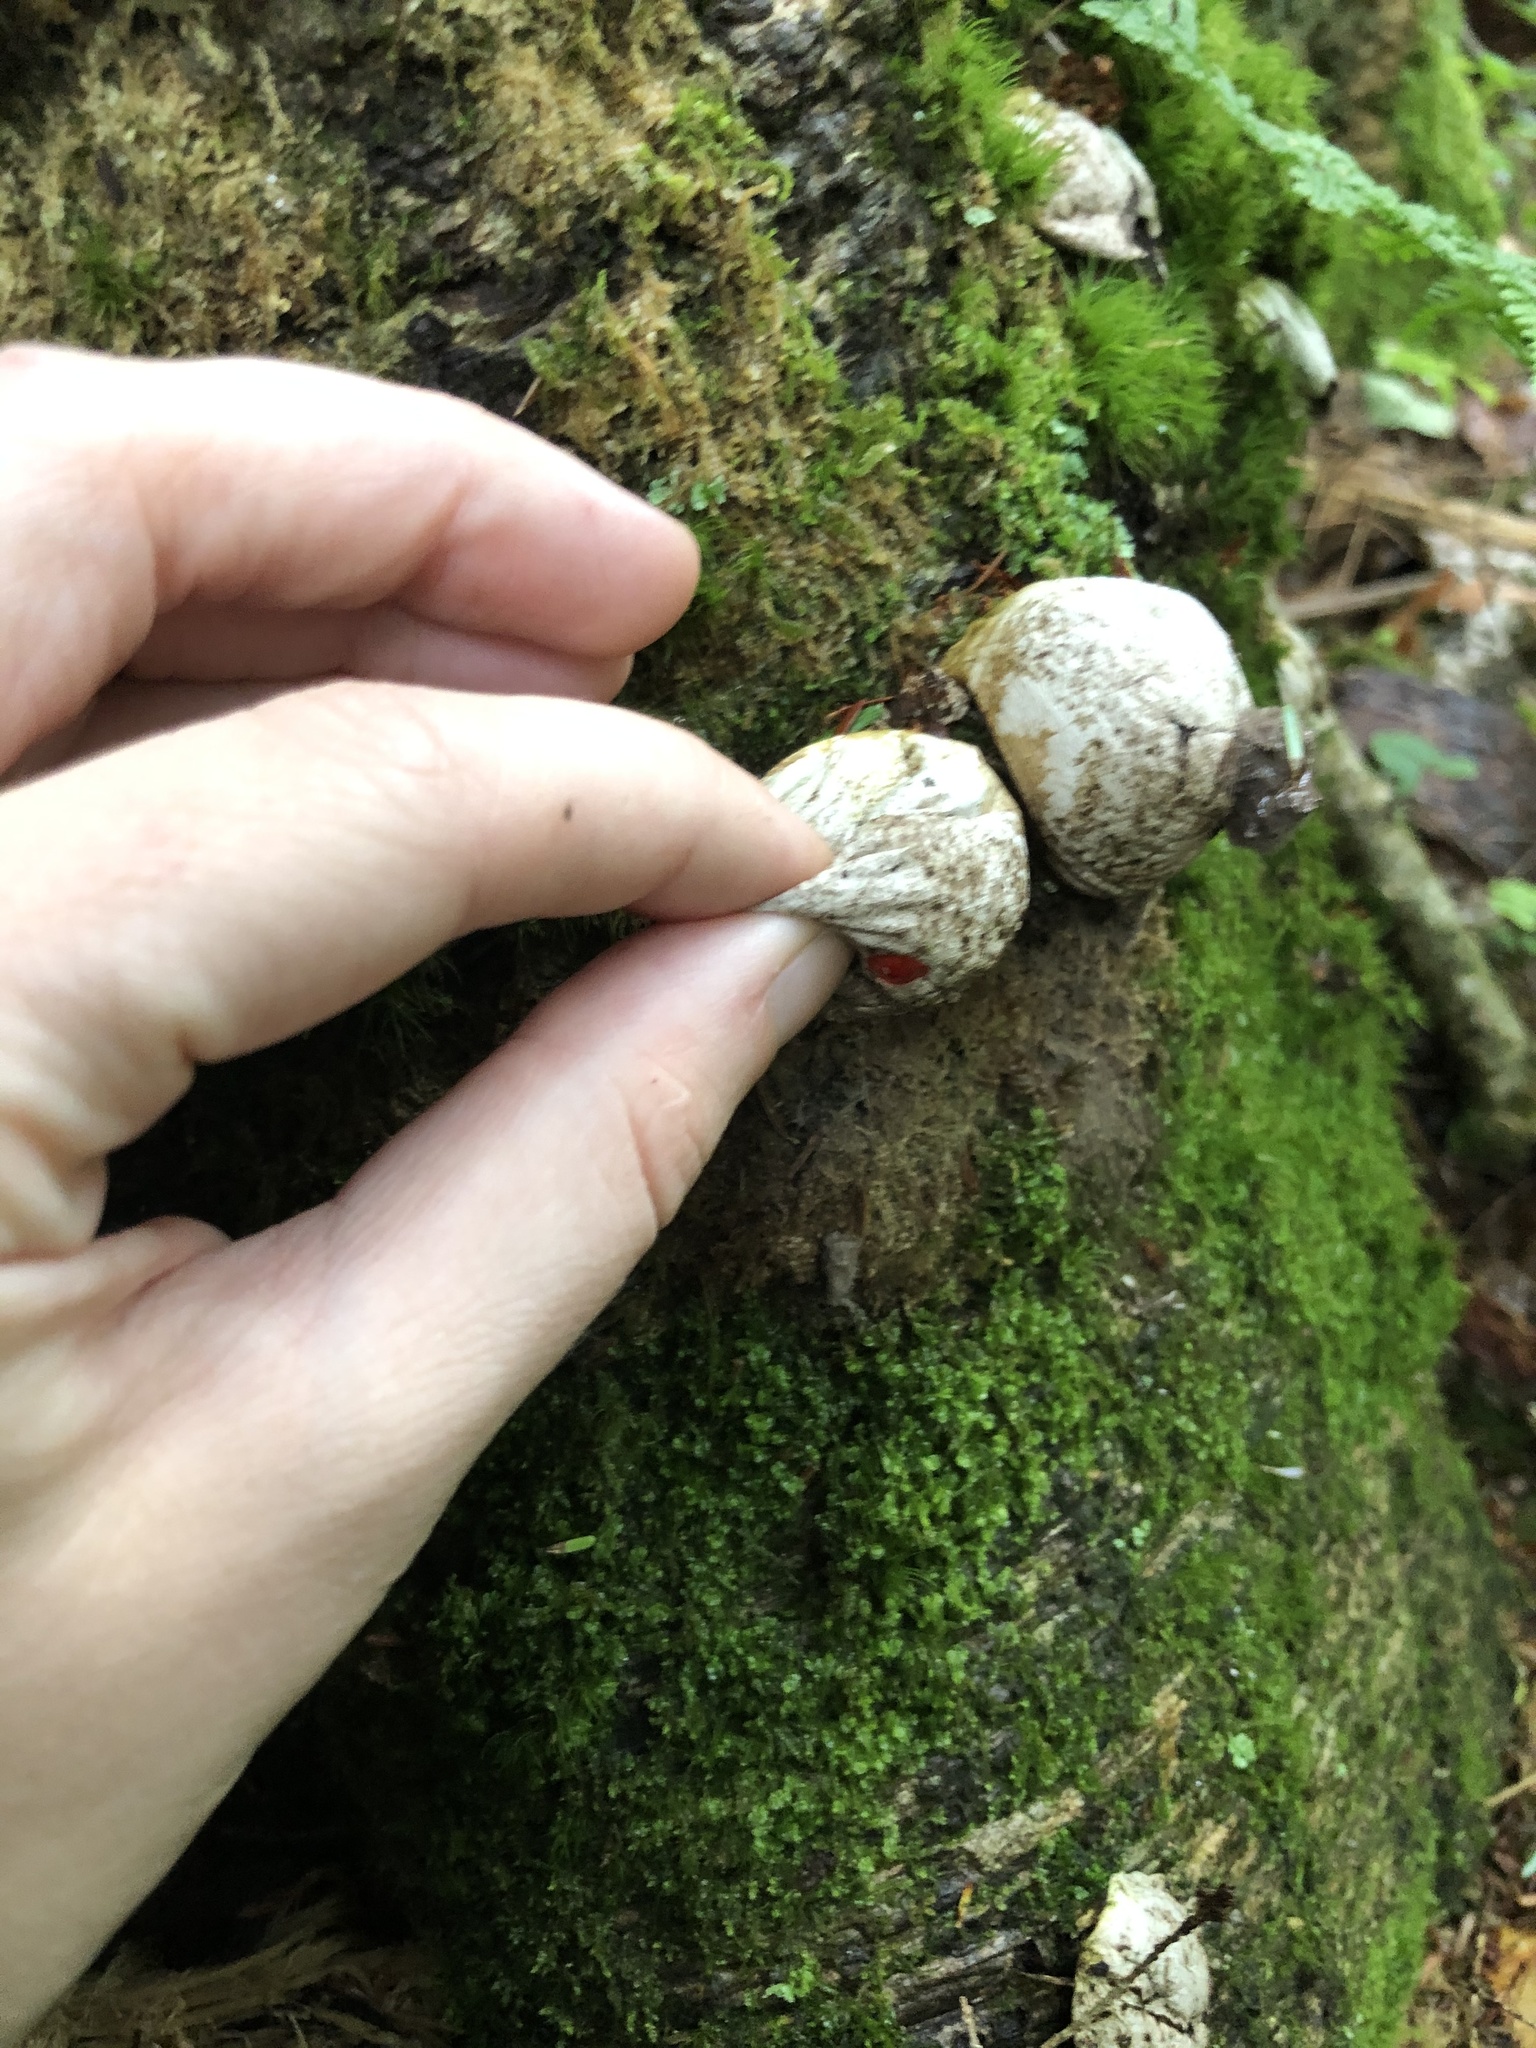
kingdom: Fungi
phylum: Basidiomycota
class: Agaricomycetes
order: Agaricales
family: Lycoperdaceae
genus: Apioperdon
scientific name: Apioperdon pyriforme
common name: Pear-shaped puffball
